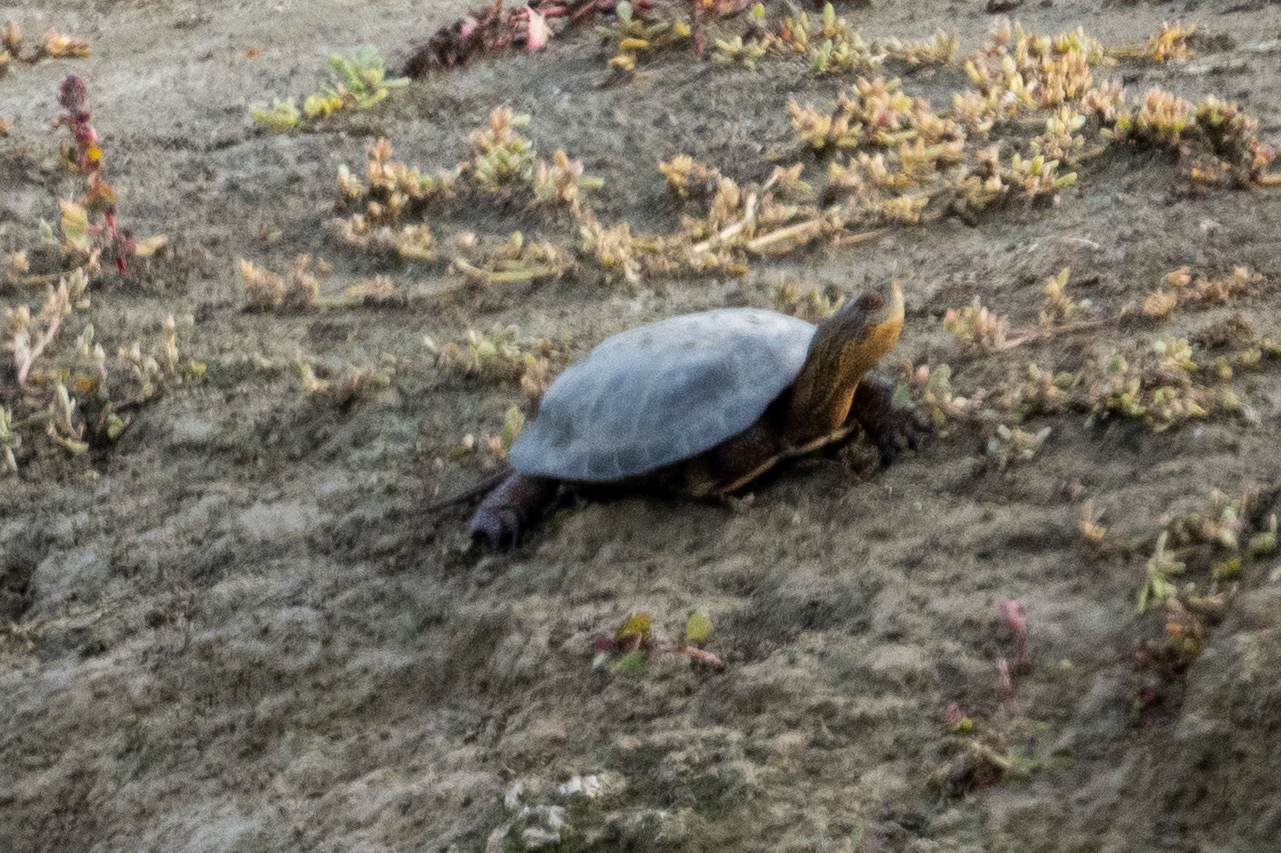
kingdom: Animalia
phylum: Chordata
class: Testudines
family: Emydidae
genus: Actinemys
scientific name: Actinemys marmorata
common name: Western pond turtle
